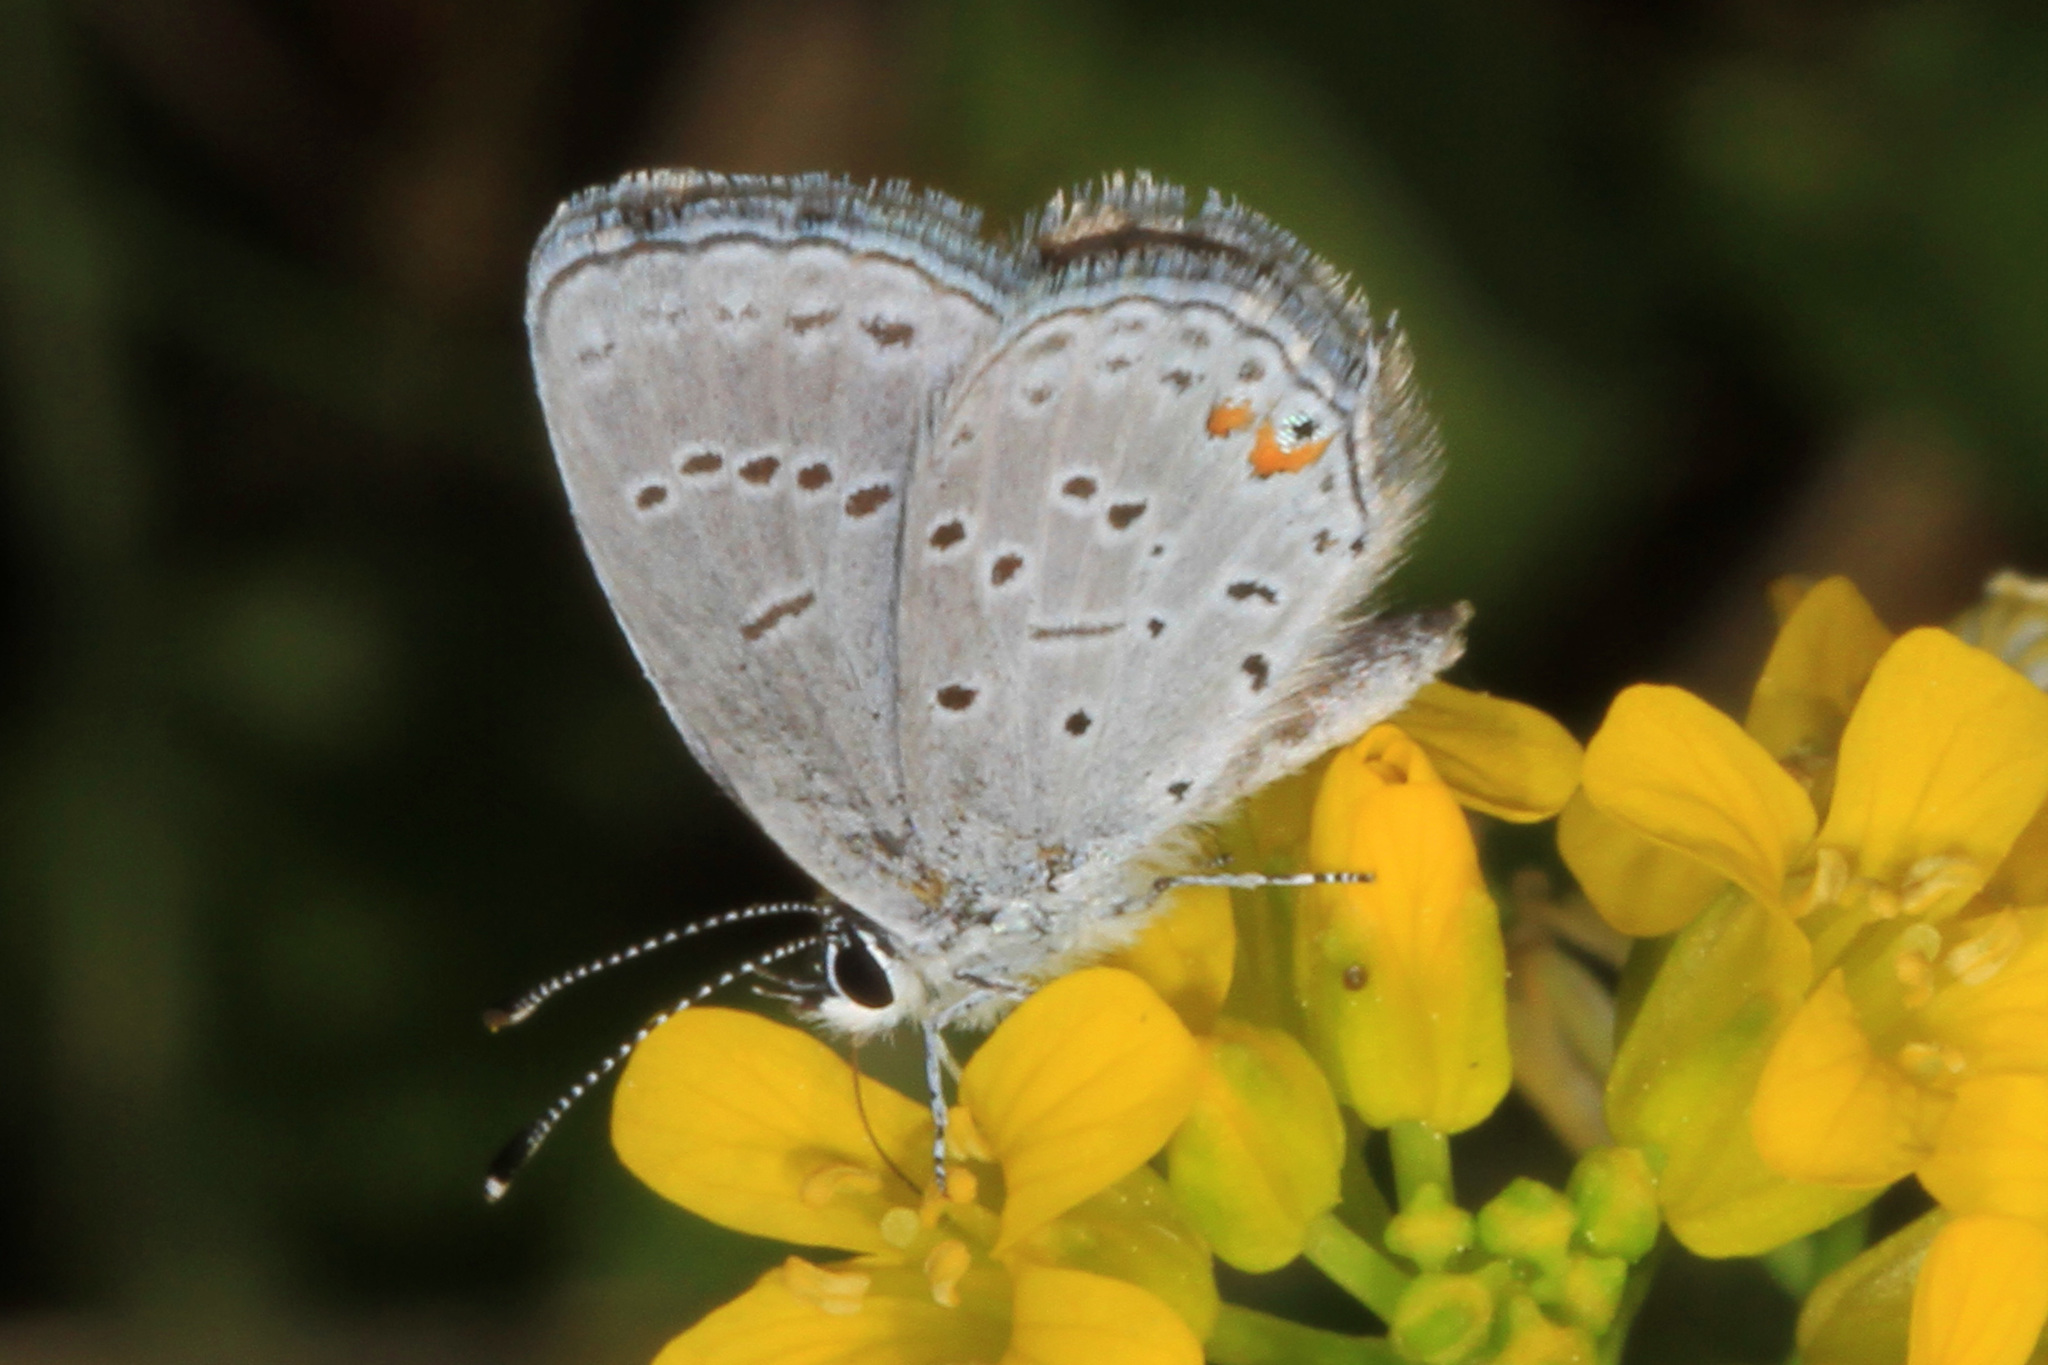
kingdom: Animalia
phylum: Arthropoda
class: Insecta
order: Lepidoptera
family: Lycaenidae
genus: Elkalyce
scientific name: Elkalyce comyntas
